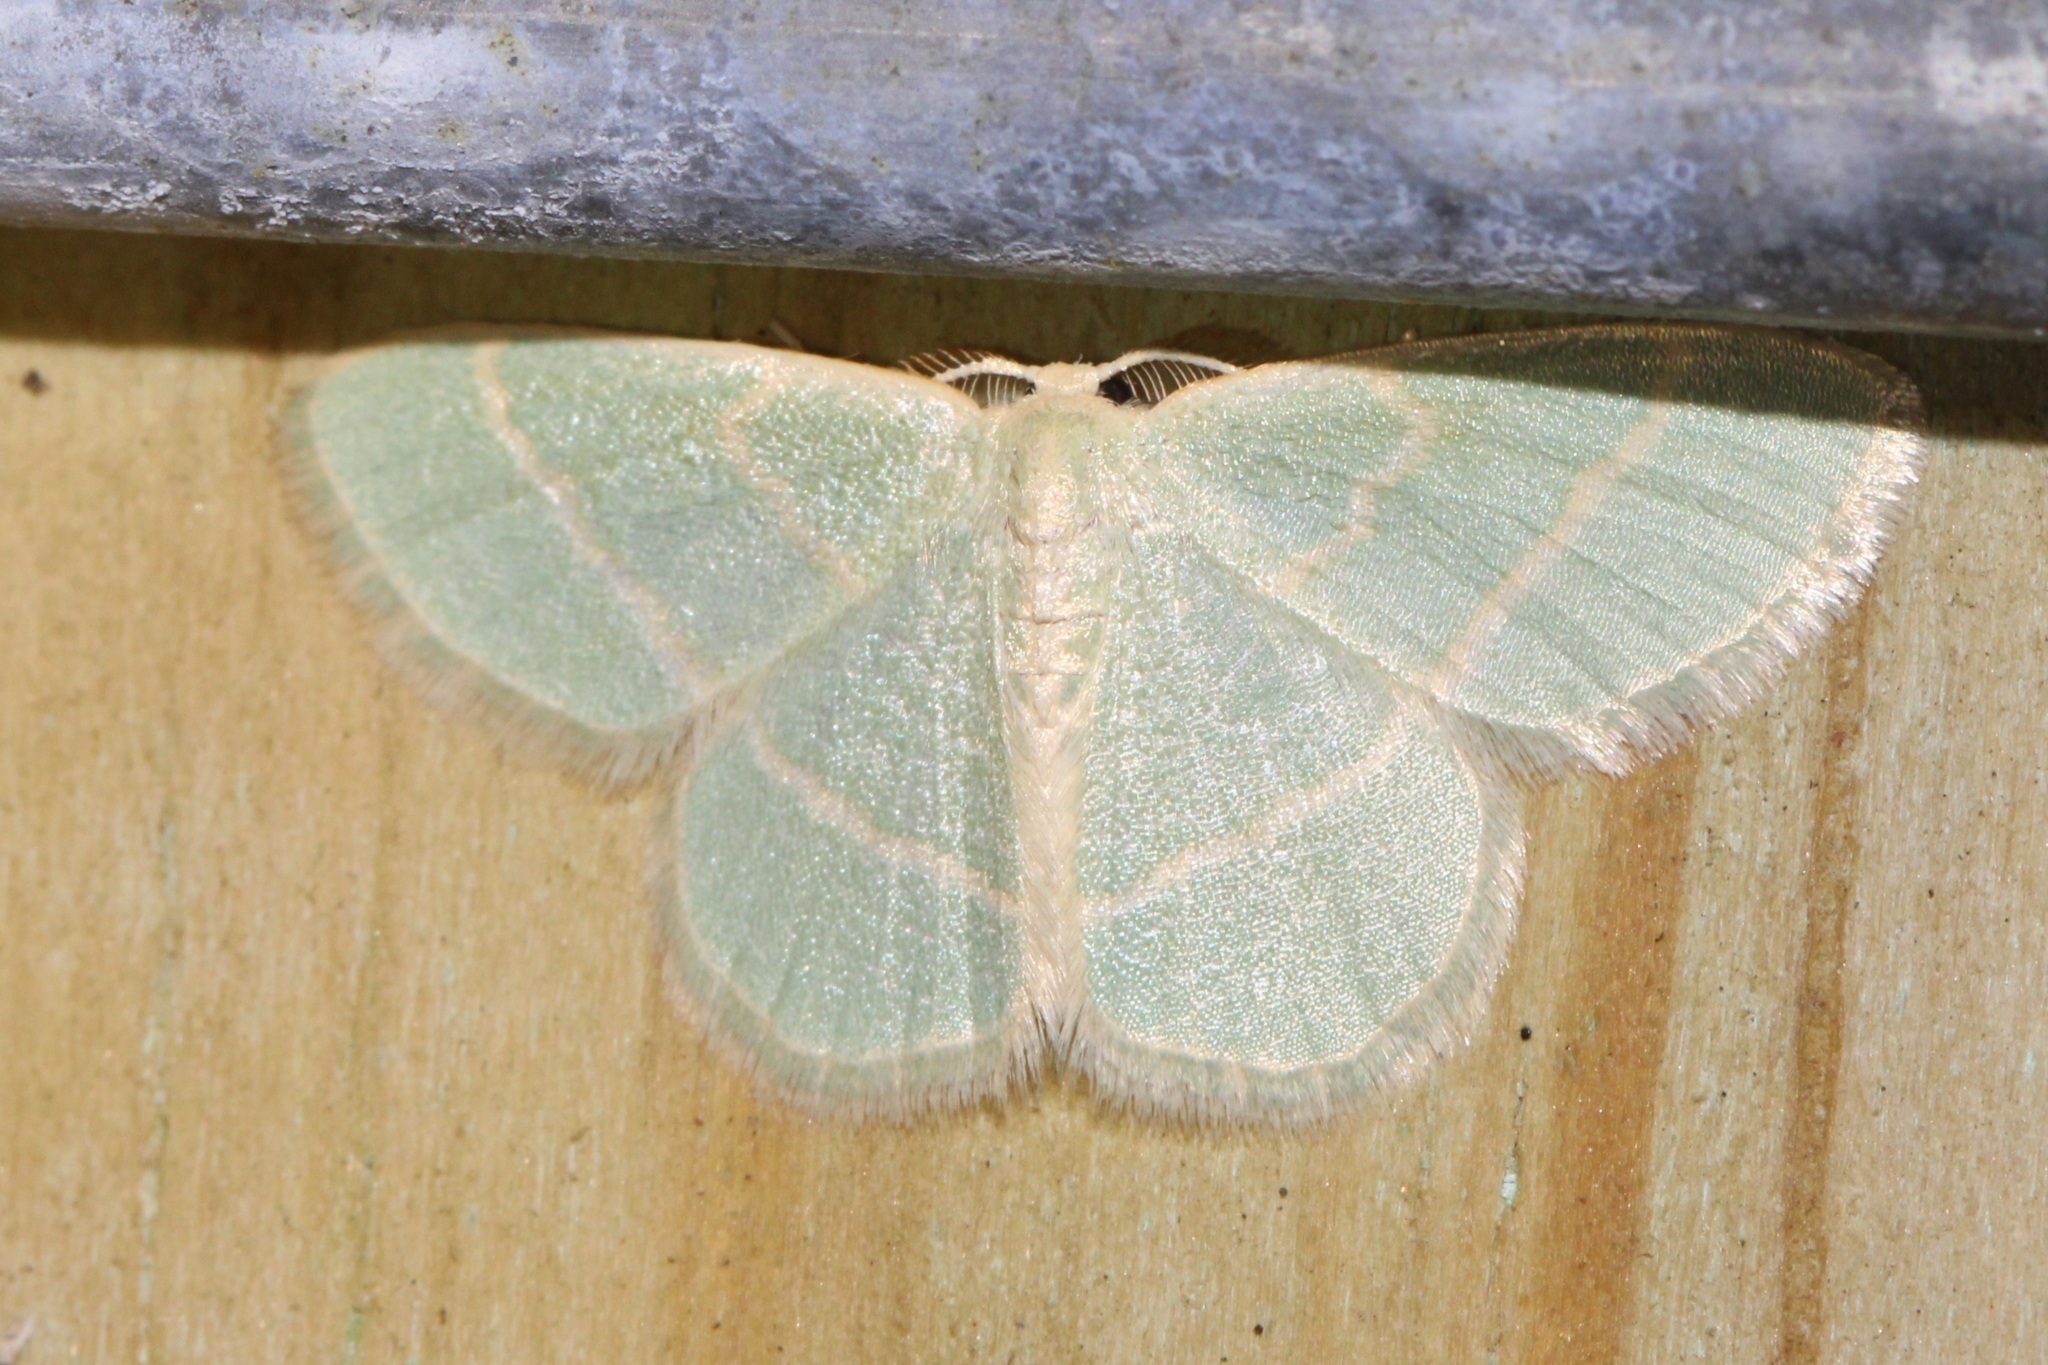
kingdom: Animalia
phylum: Arthropoda
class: Insecta
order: Lepidoptera
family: Geometridae
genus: Chlorochlamys
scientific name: Chlorochlamys chloroleucaria
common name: Blackberry looper
